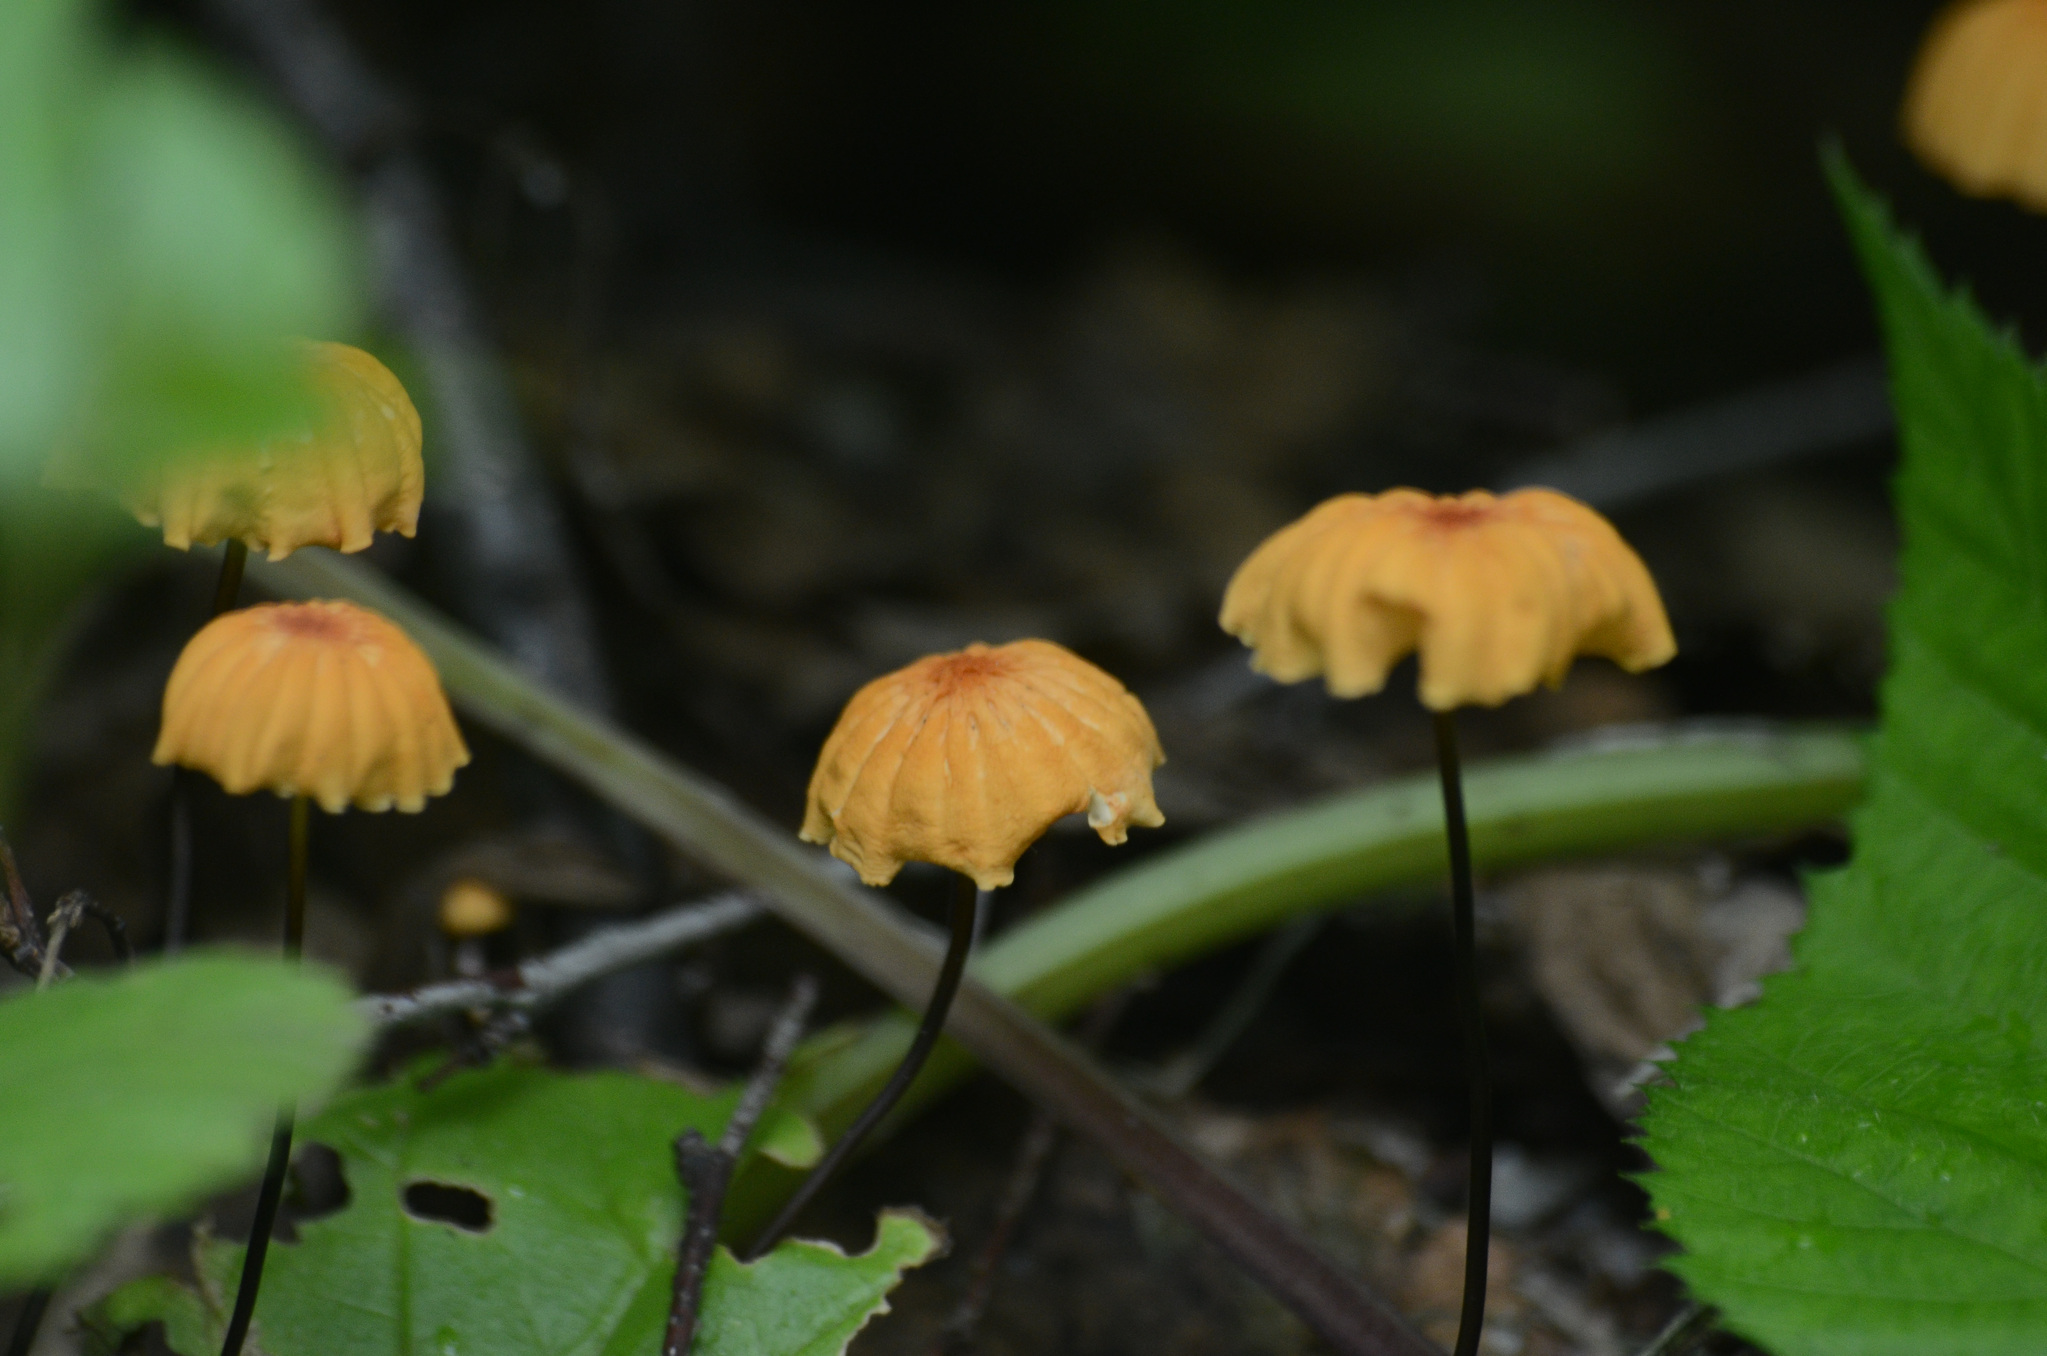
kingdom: Fungi
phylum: Basidiomycota
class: Agaricomycetes
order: Agaricales
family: Marasmiaceae
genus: Marasmius
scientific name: Marasmius siccus
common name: Orange pinwheel
